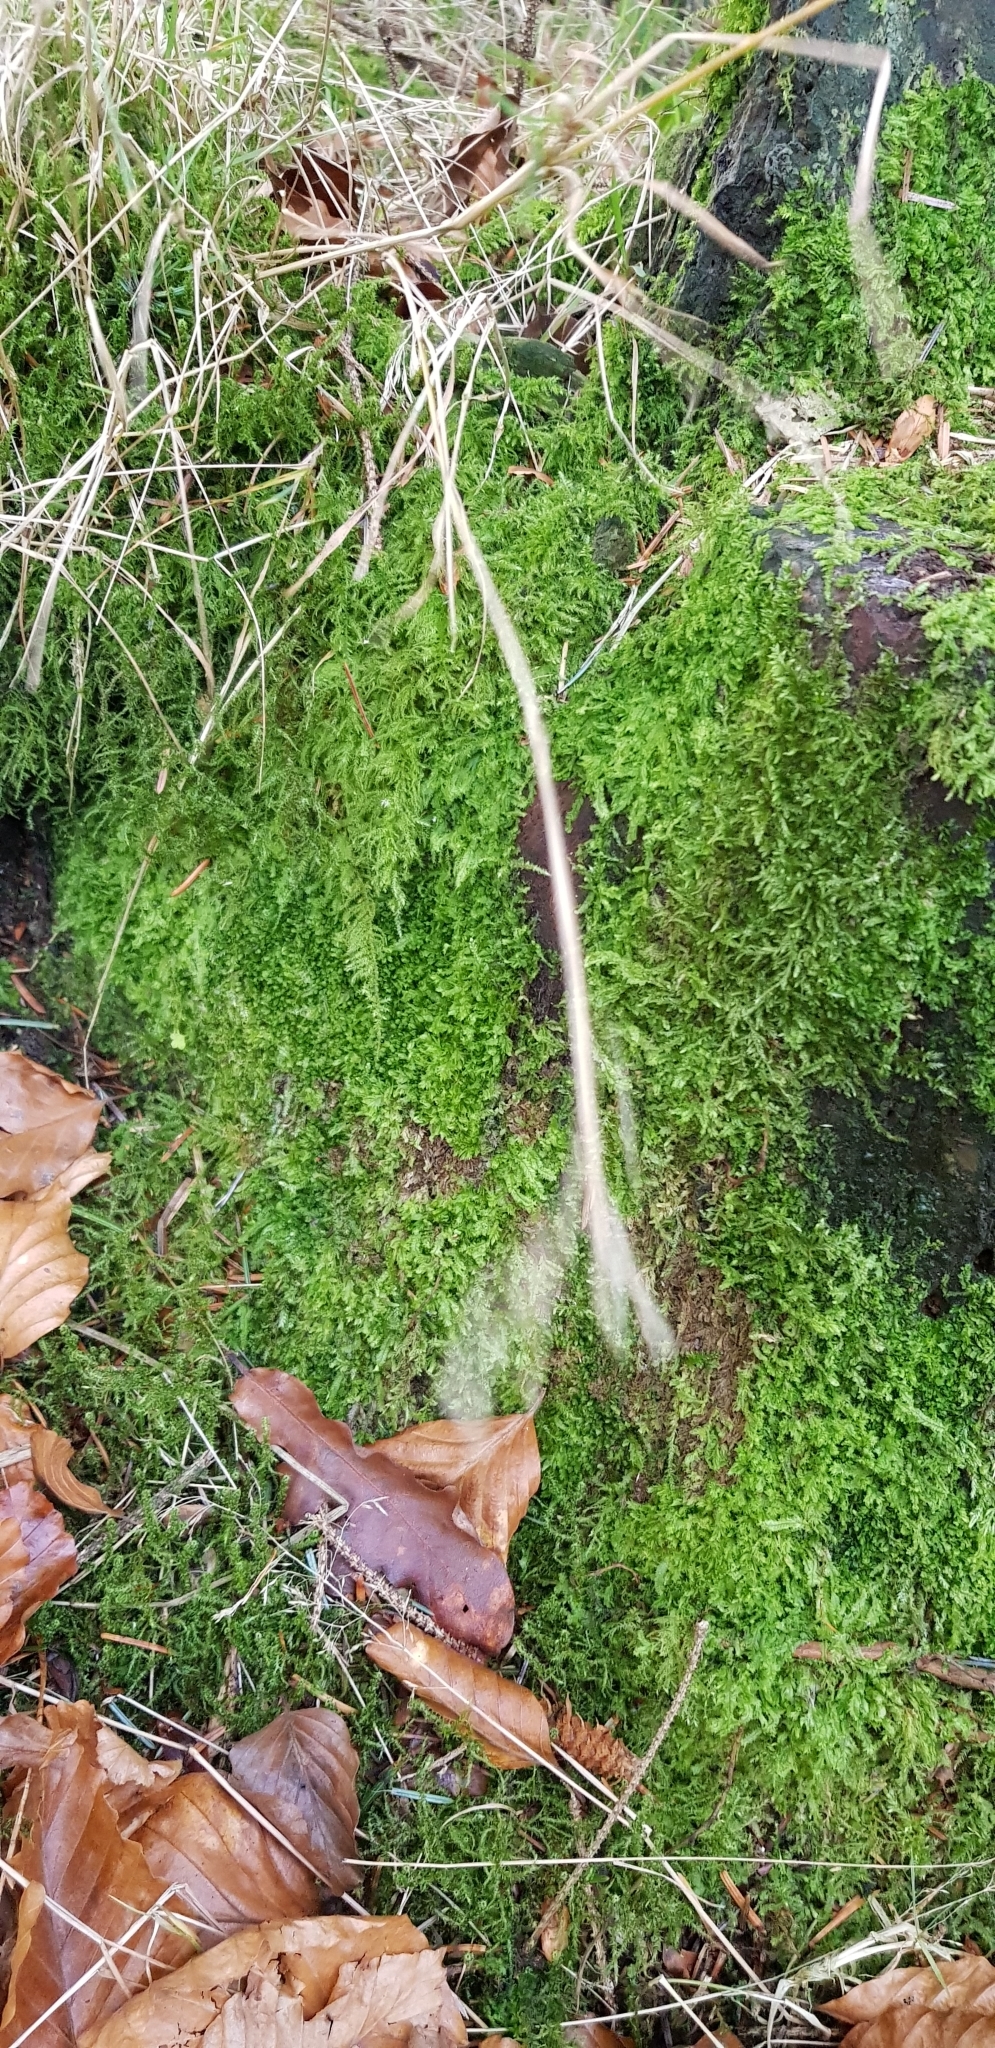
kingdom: Plantae
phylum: Marchantiophyta
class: Jungermanniopsida
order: Jungermanniales
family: Lophocoleaceae
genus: Lophocolea
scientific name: Lophocolea bidentata
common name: Bifid crestwort
